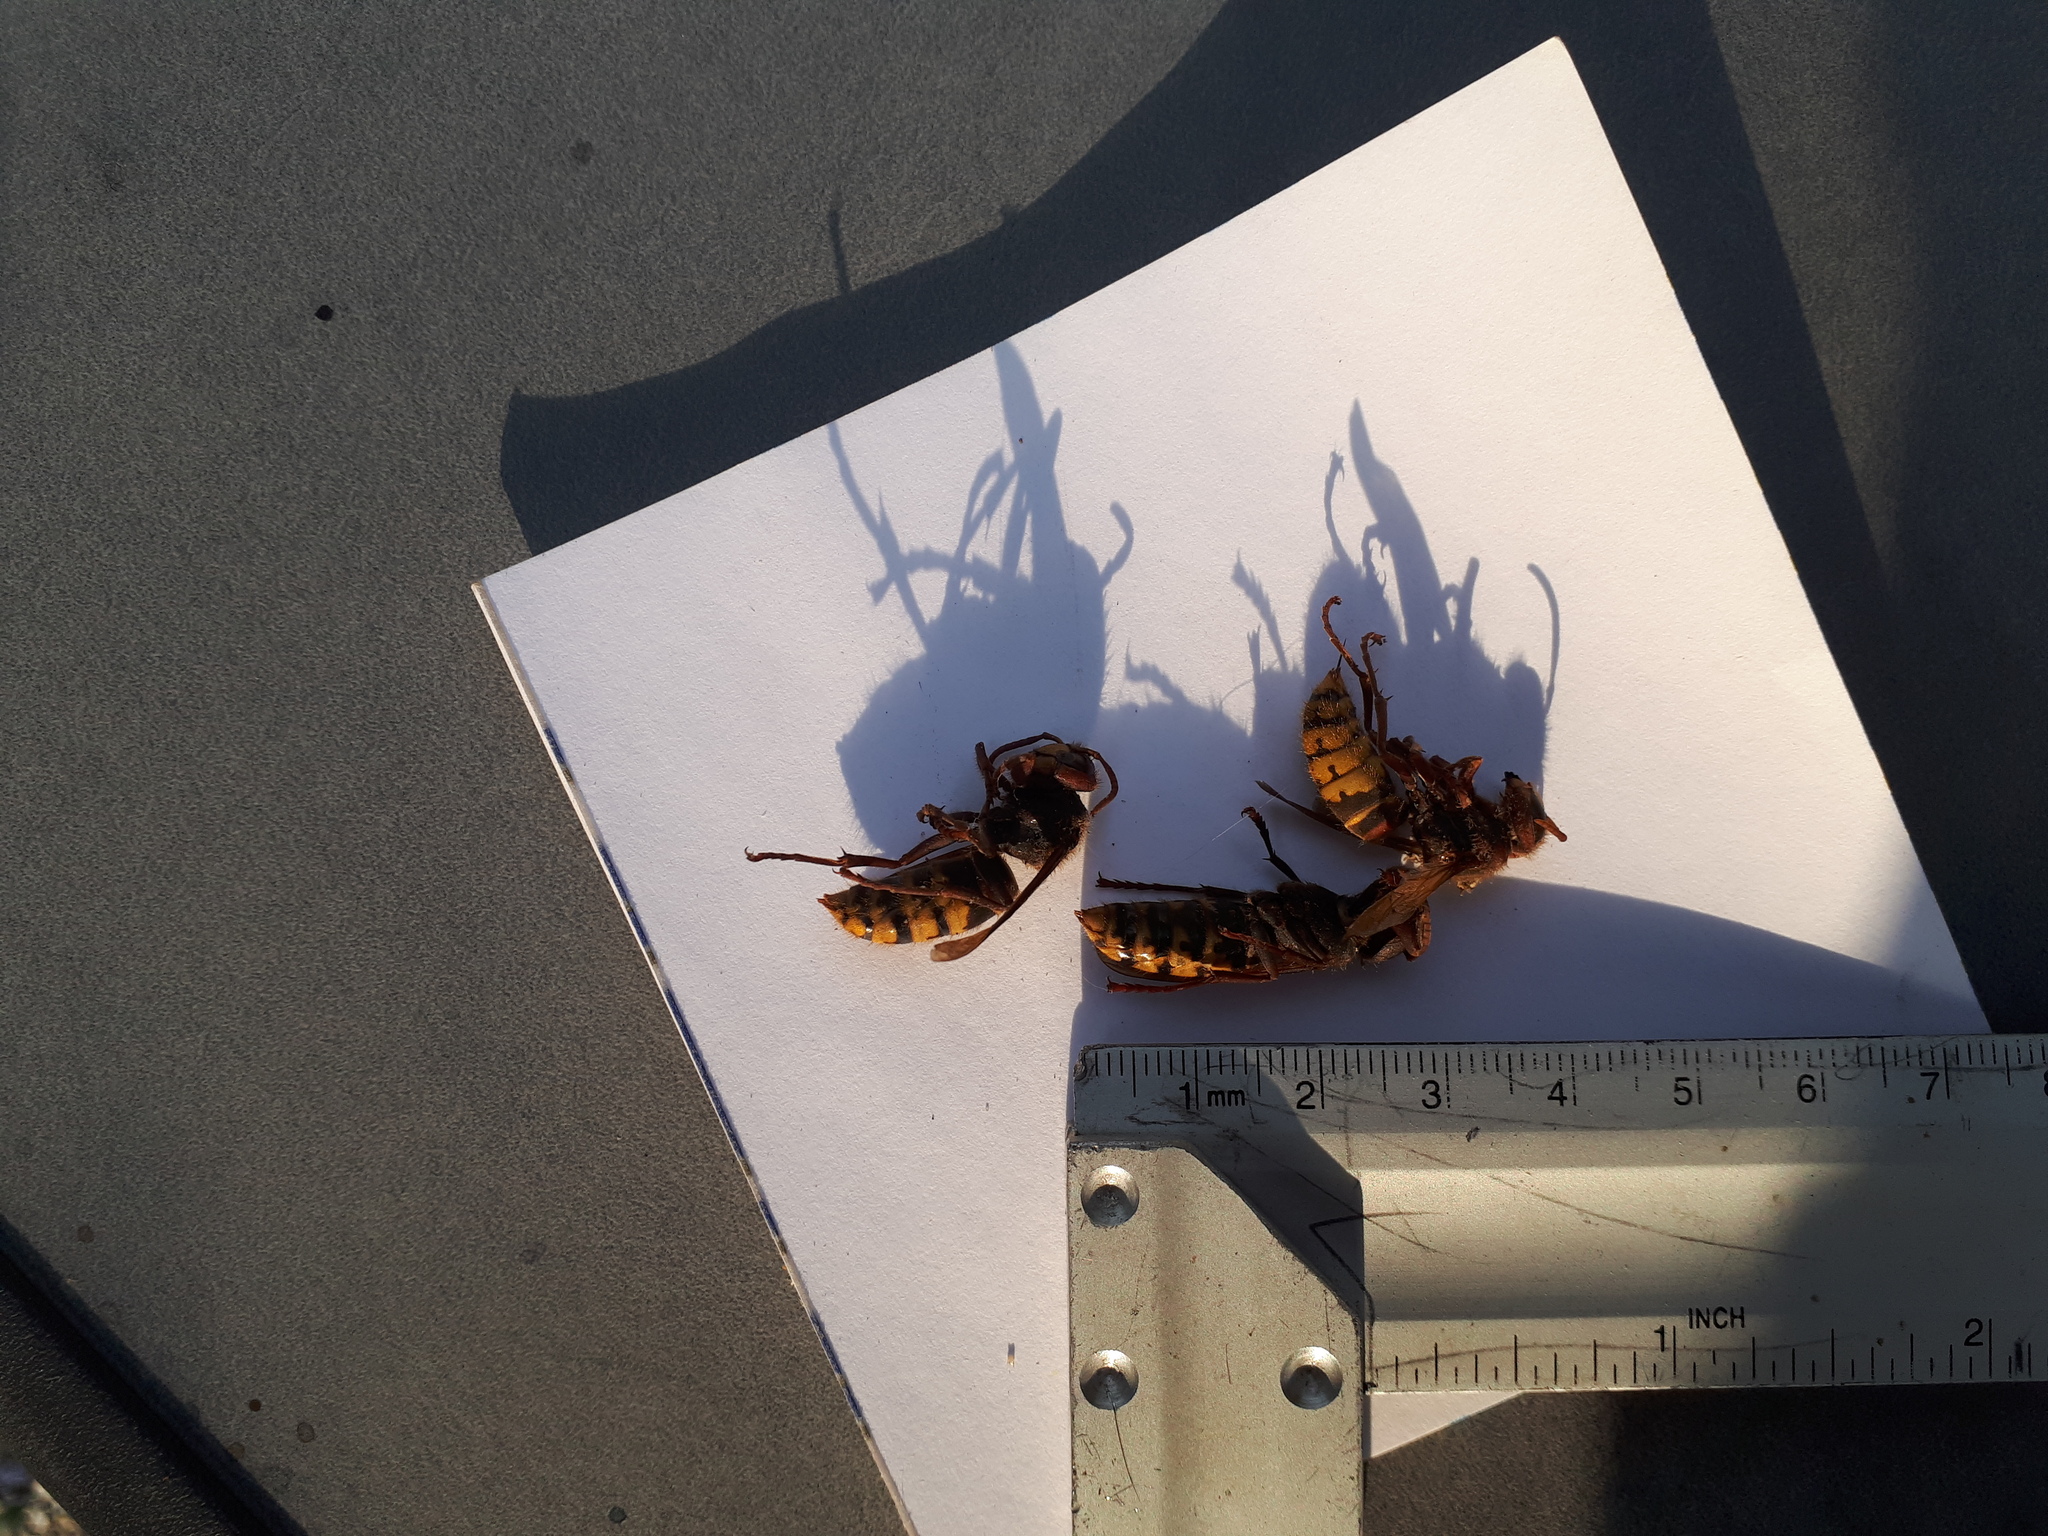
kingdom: Animalia
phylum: Arthropoda
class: Insecta
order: Hymenoptera
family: Vespidae
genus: Vespa
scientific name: Vespa crabro
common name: Hornet
